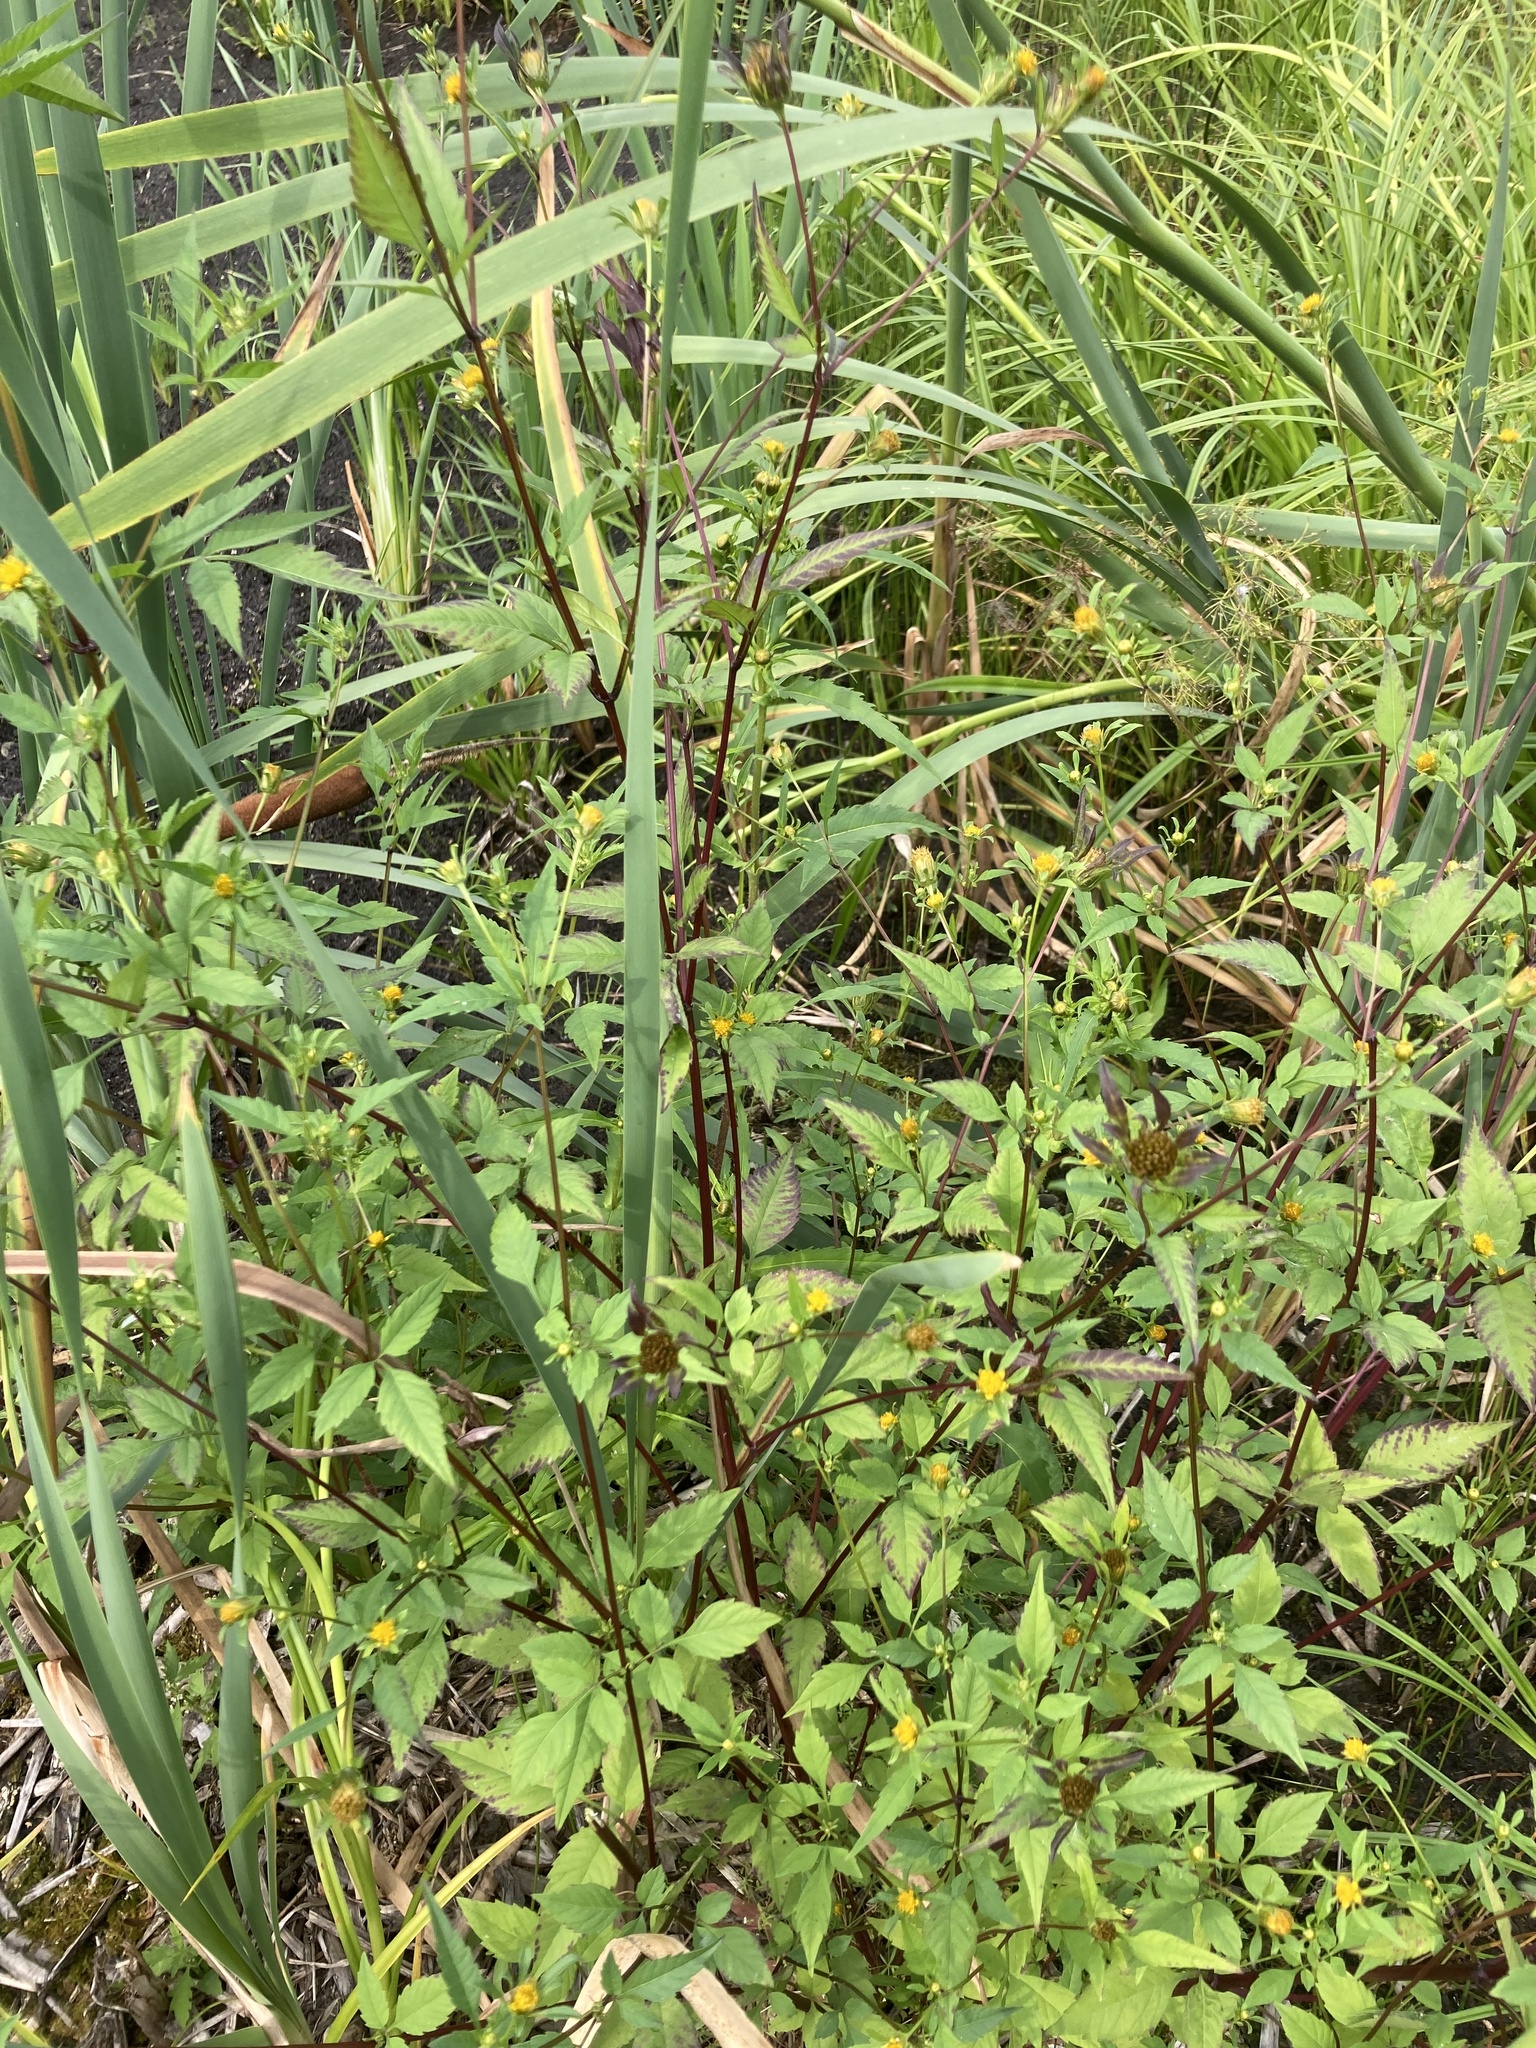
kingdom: Plantae
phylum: Tracheophyta
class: Magnoliopsida
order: Asterales
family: Asteraceae
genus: Bidens
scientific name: Bidens frondosa
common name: Beggarticks
